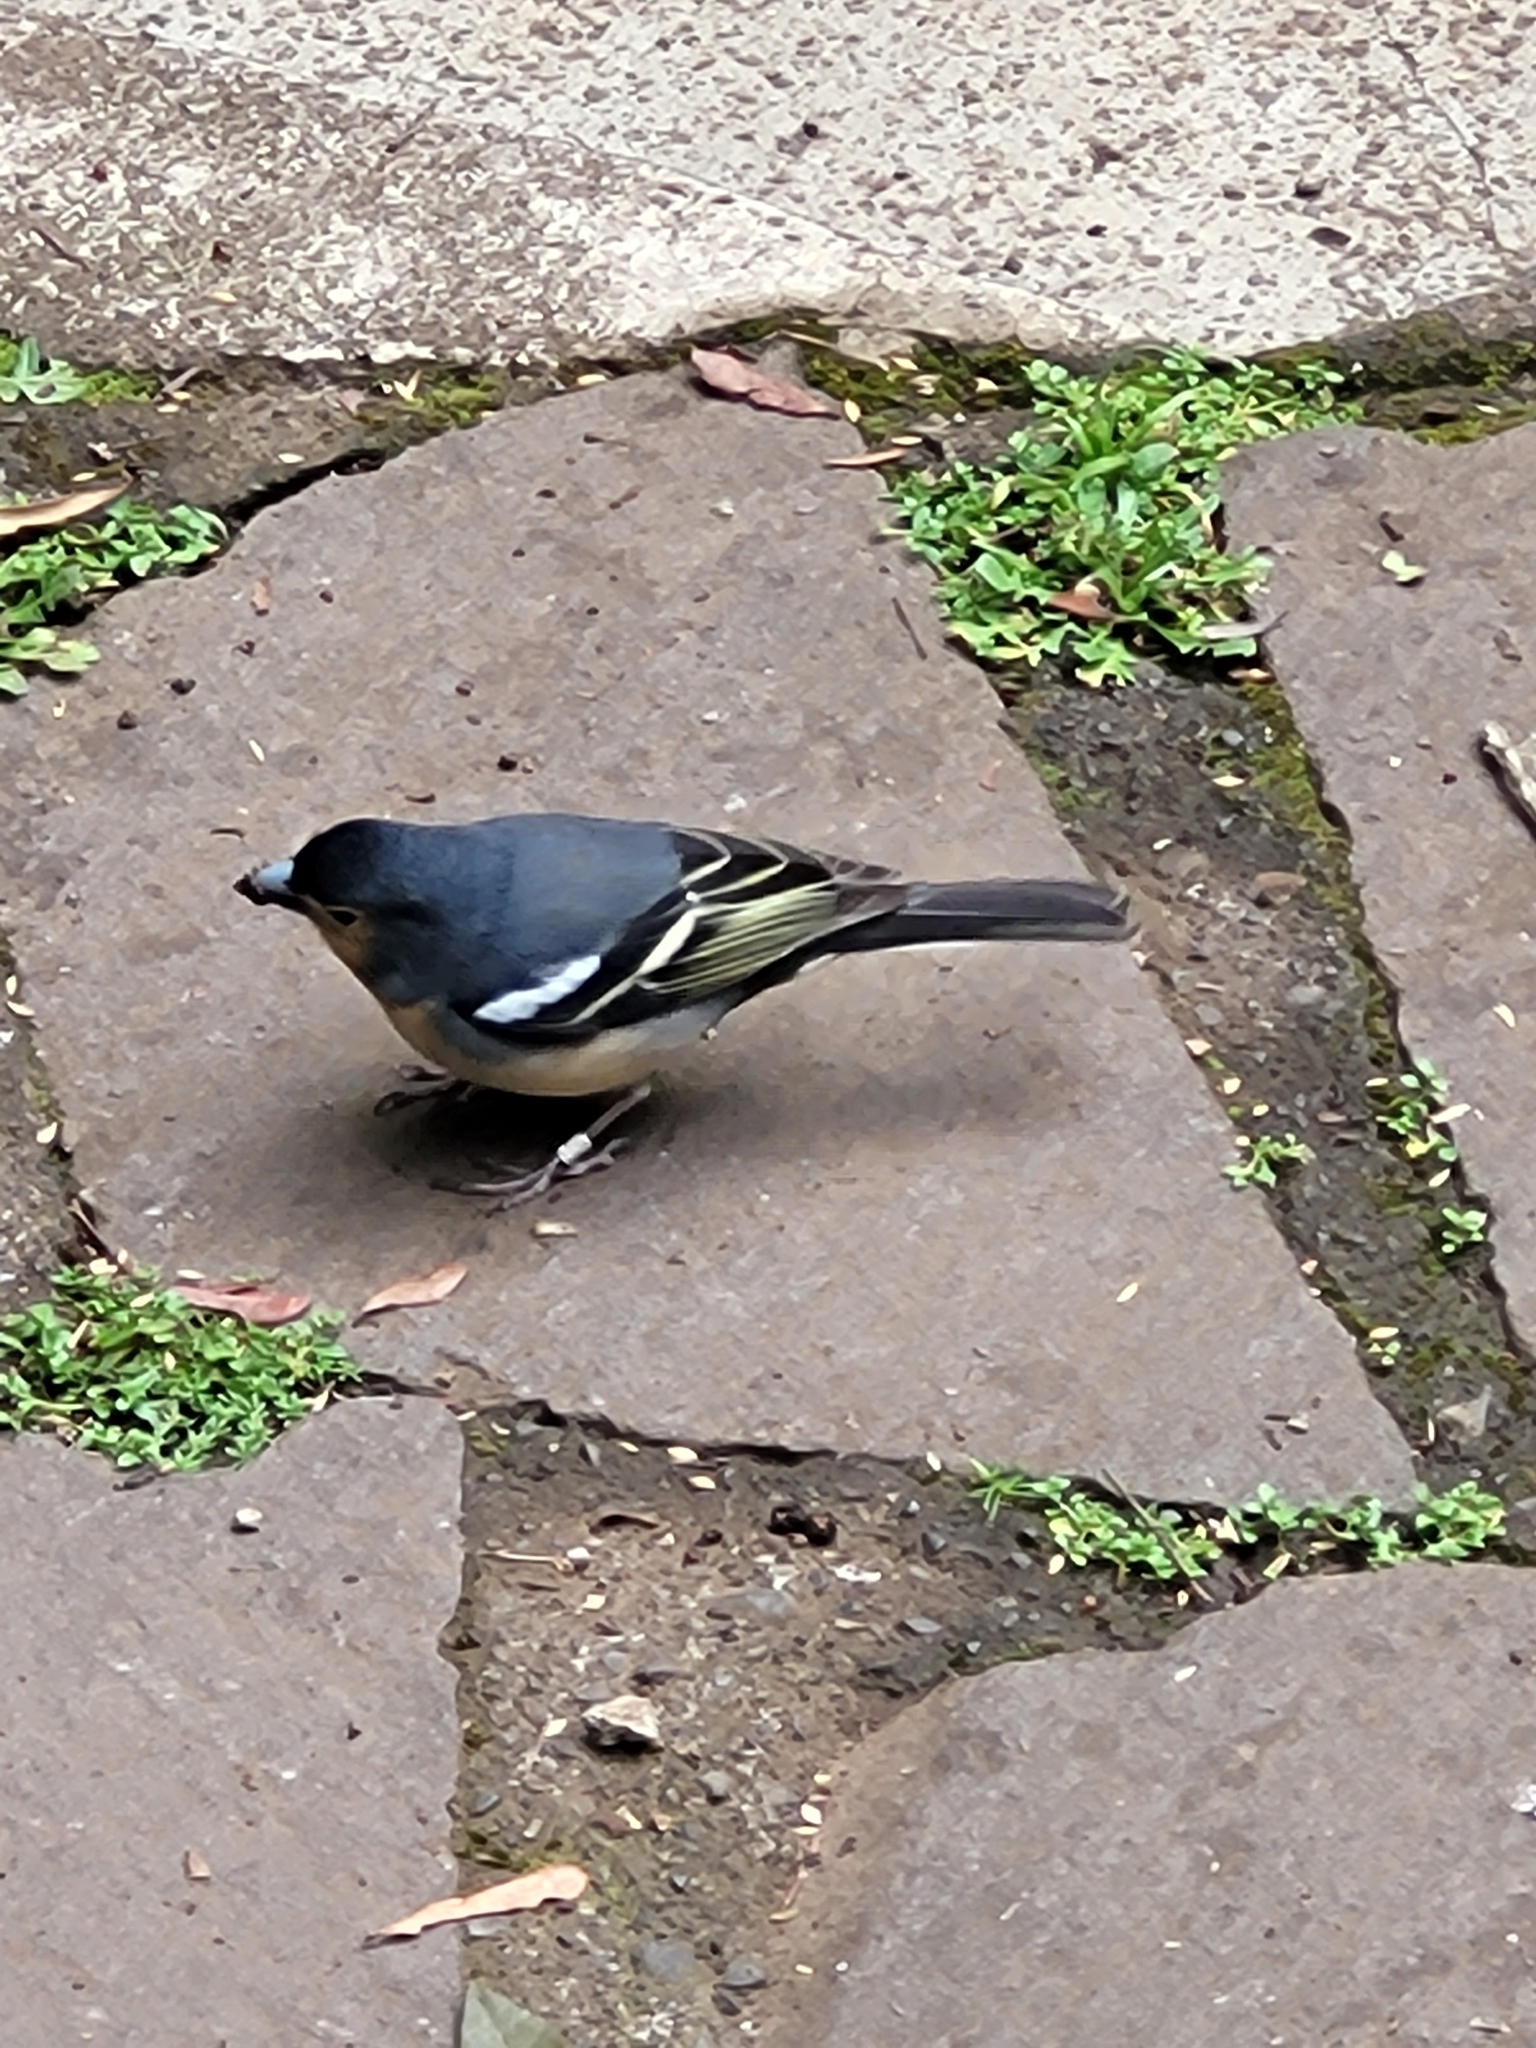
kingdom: Animalia
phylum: Chordata
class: Aves
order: Passeriformes
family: Fringillidae
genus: Fringilla
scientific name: Fringilla canariensis
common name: Canary islands chaffinch
